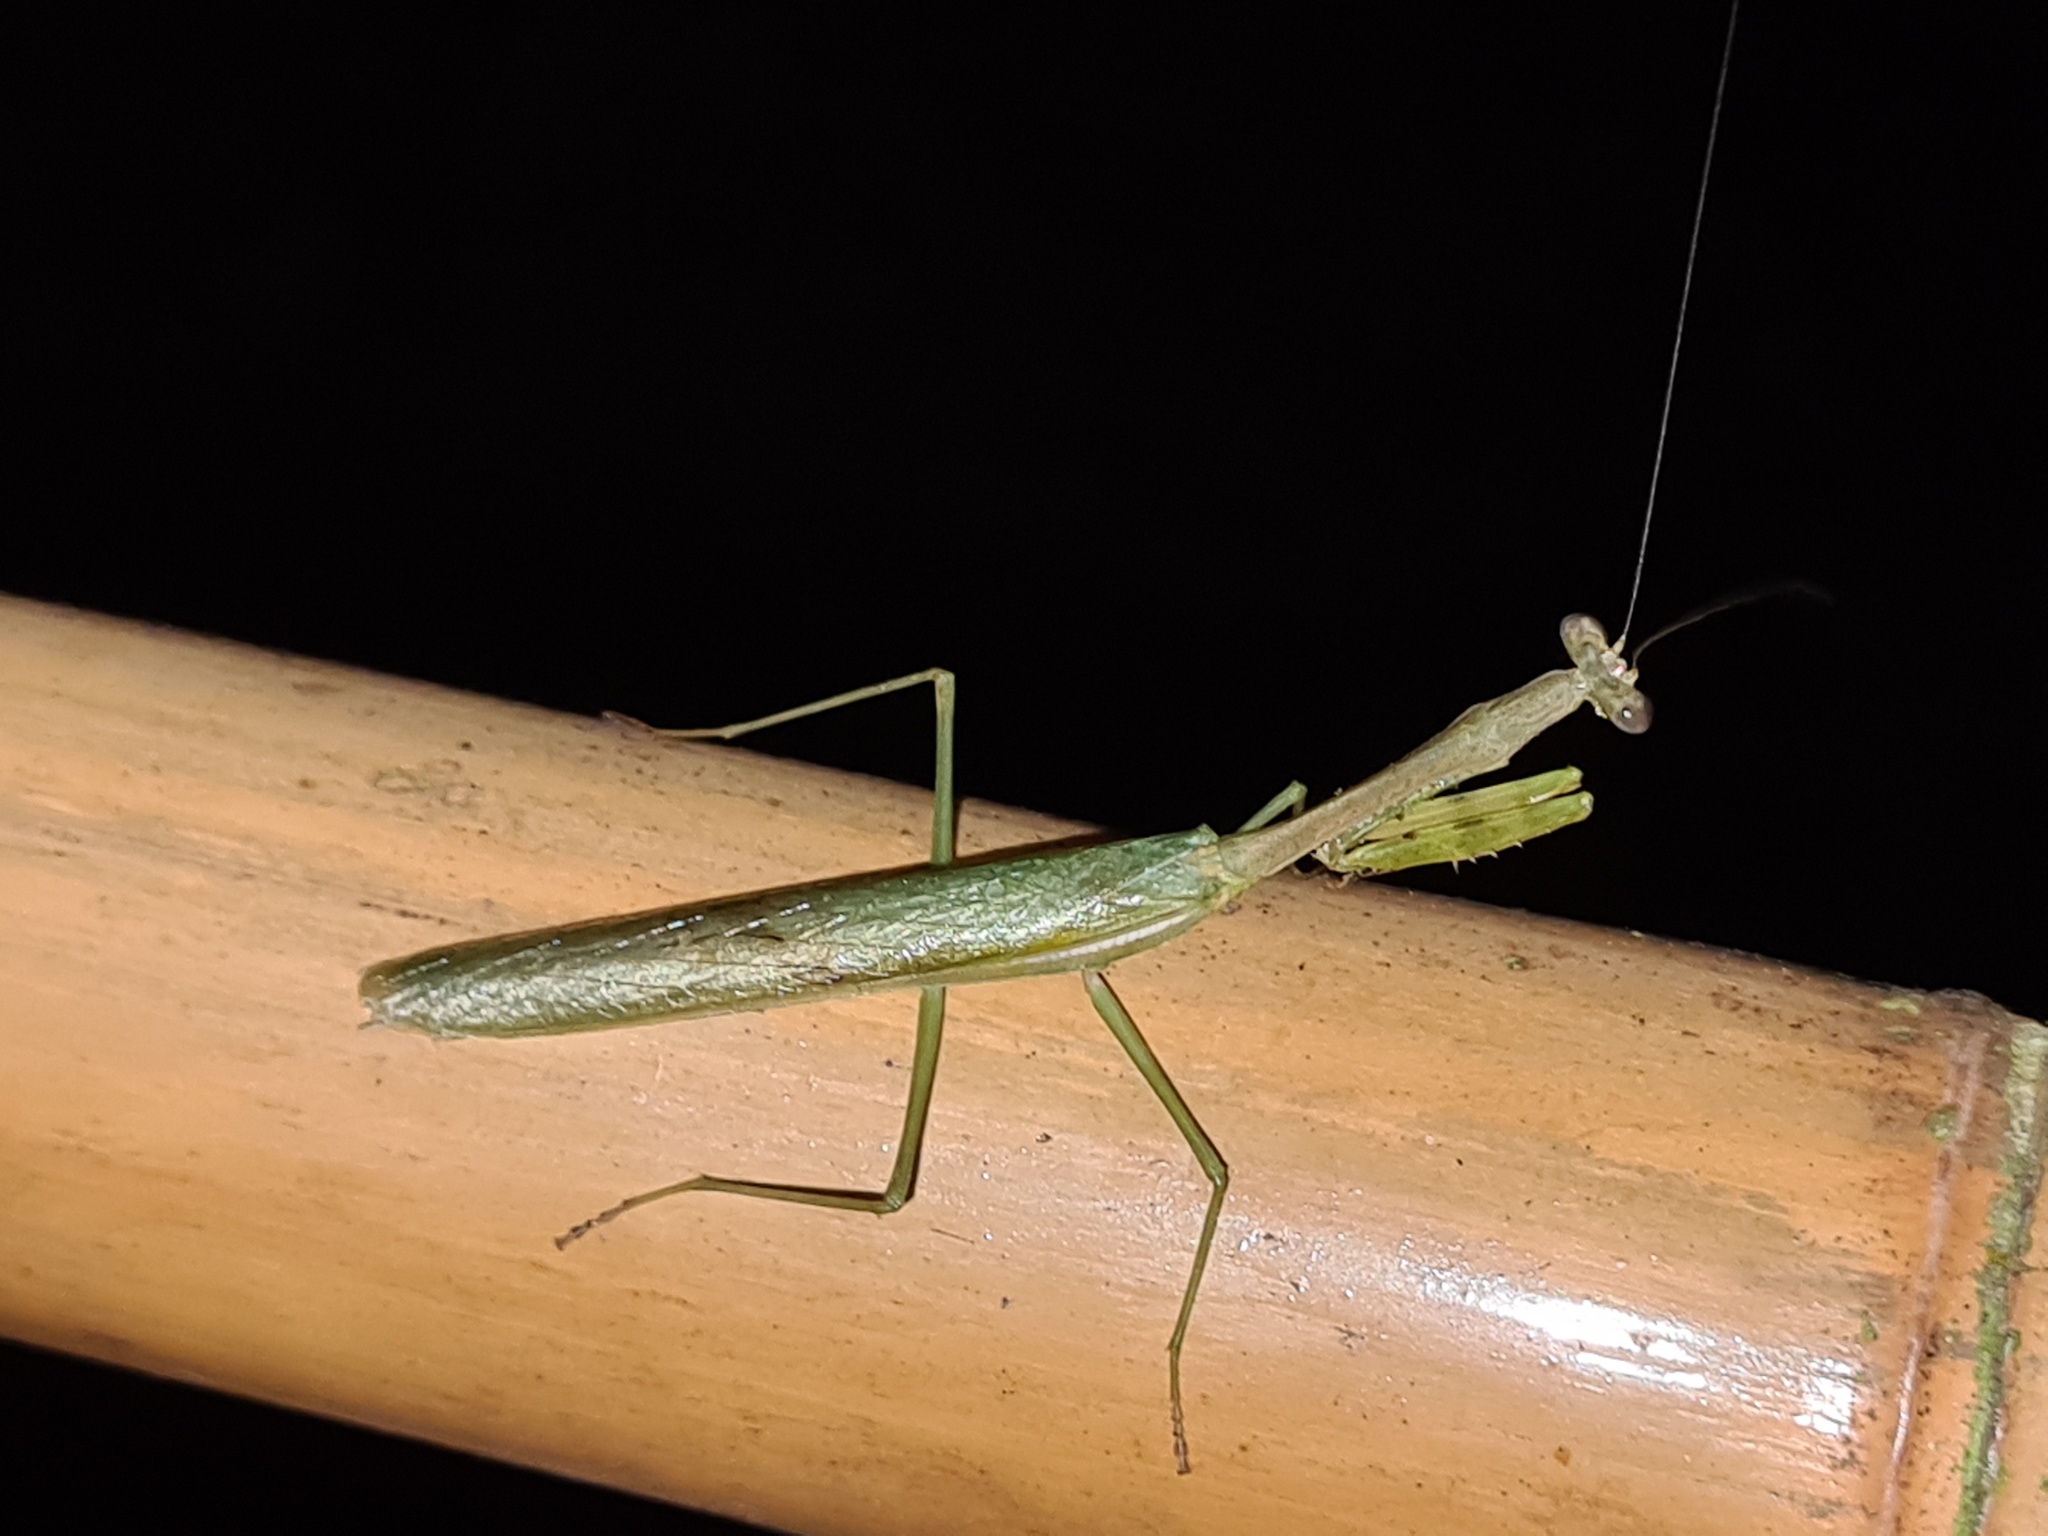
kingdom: Animalia
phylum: Arthropoda
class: Insecta
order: Mantodea
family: Mantidae
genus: Stagmomantis
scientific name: Stagmomantis theophila
